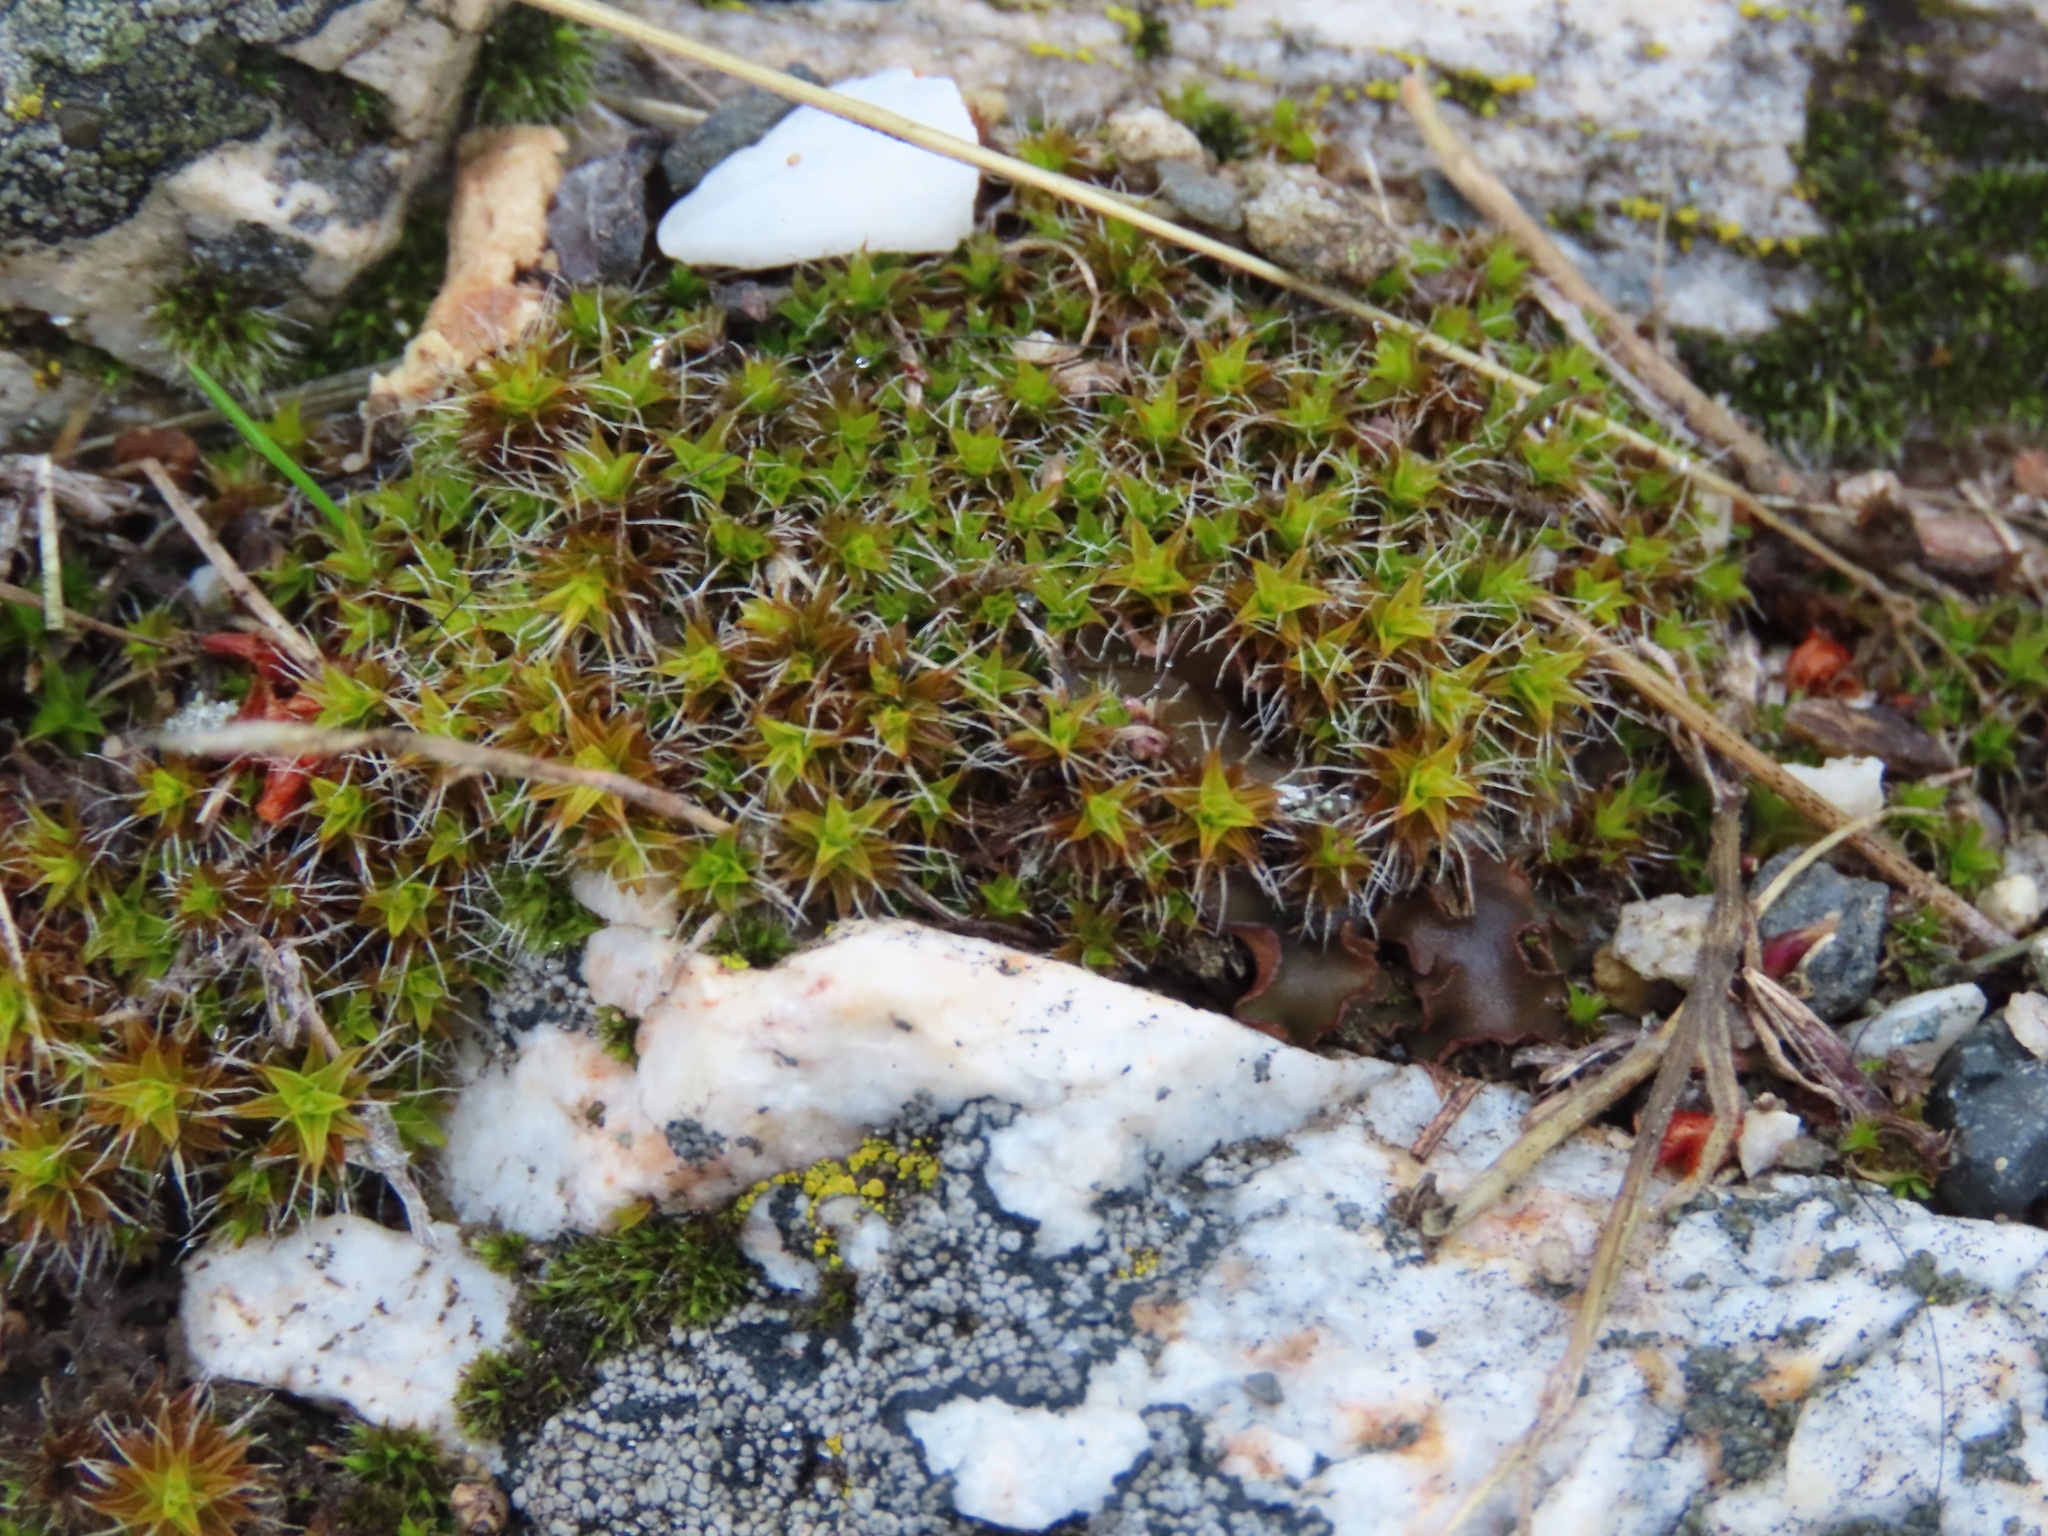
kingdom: Plantae
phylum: Bryophyta
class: Bryopsida
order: Pottiales
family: Pottiaceae
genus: Syntrichia
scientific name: Syntrichia ruralis
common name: Sidewalk screw moss
